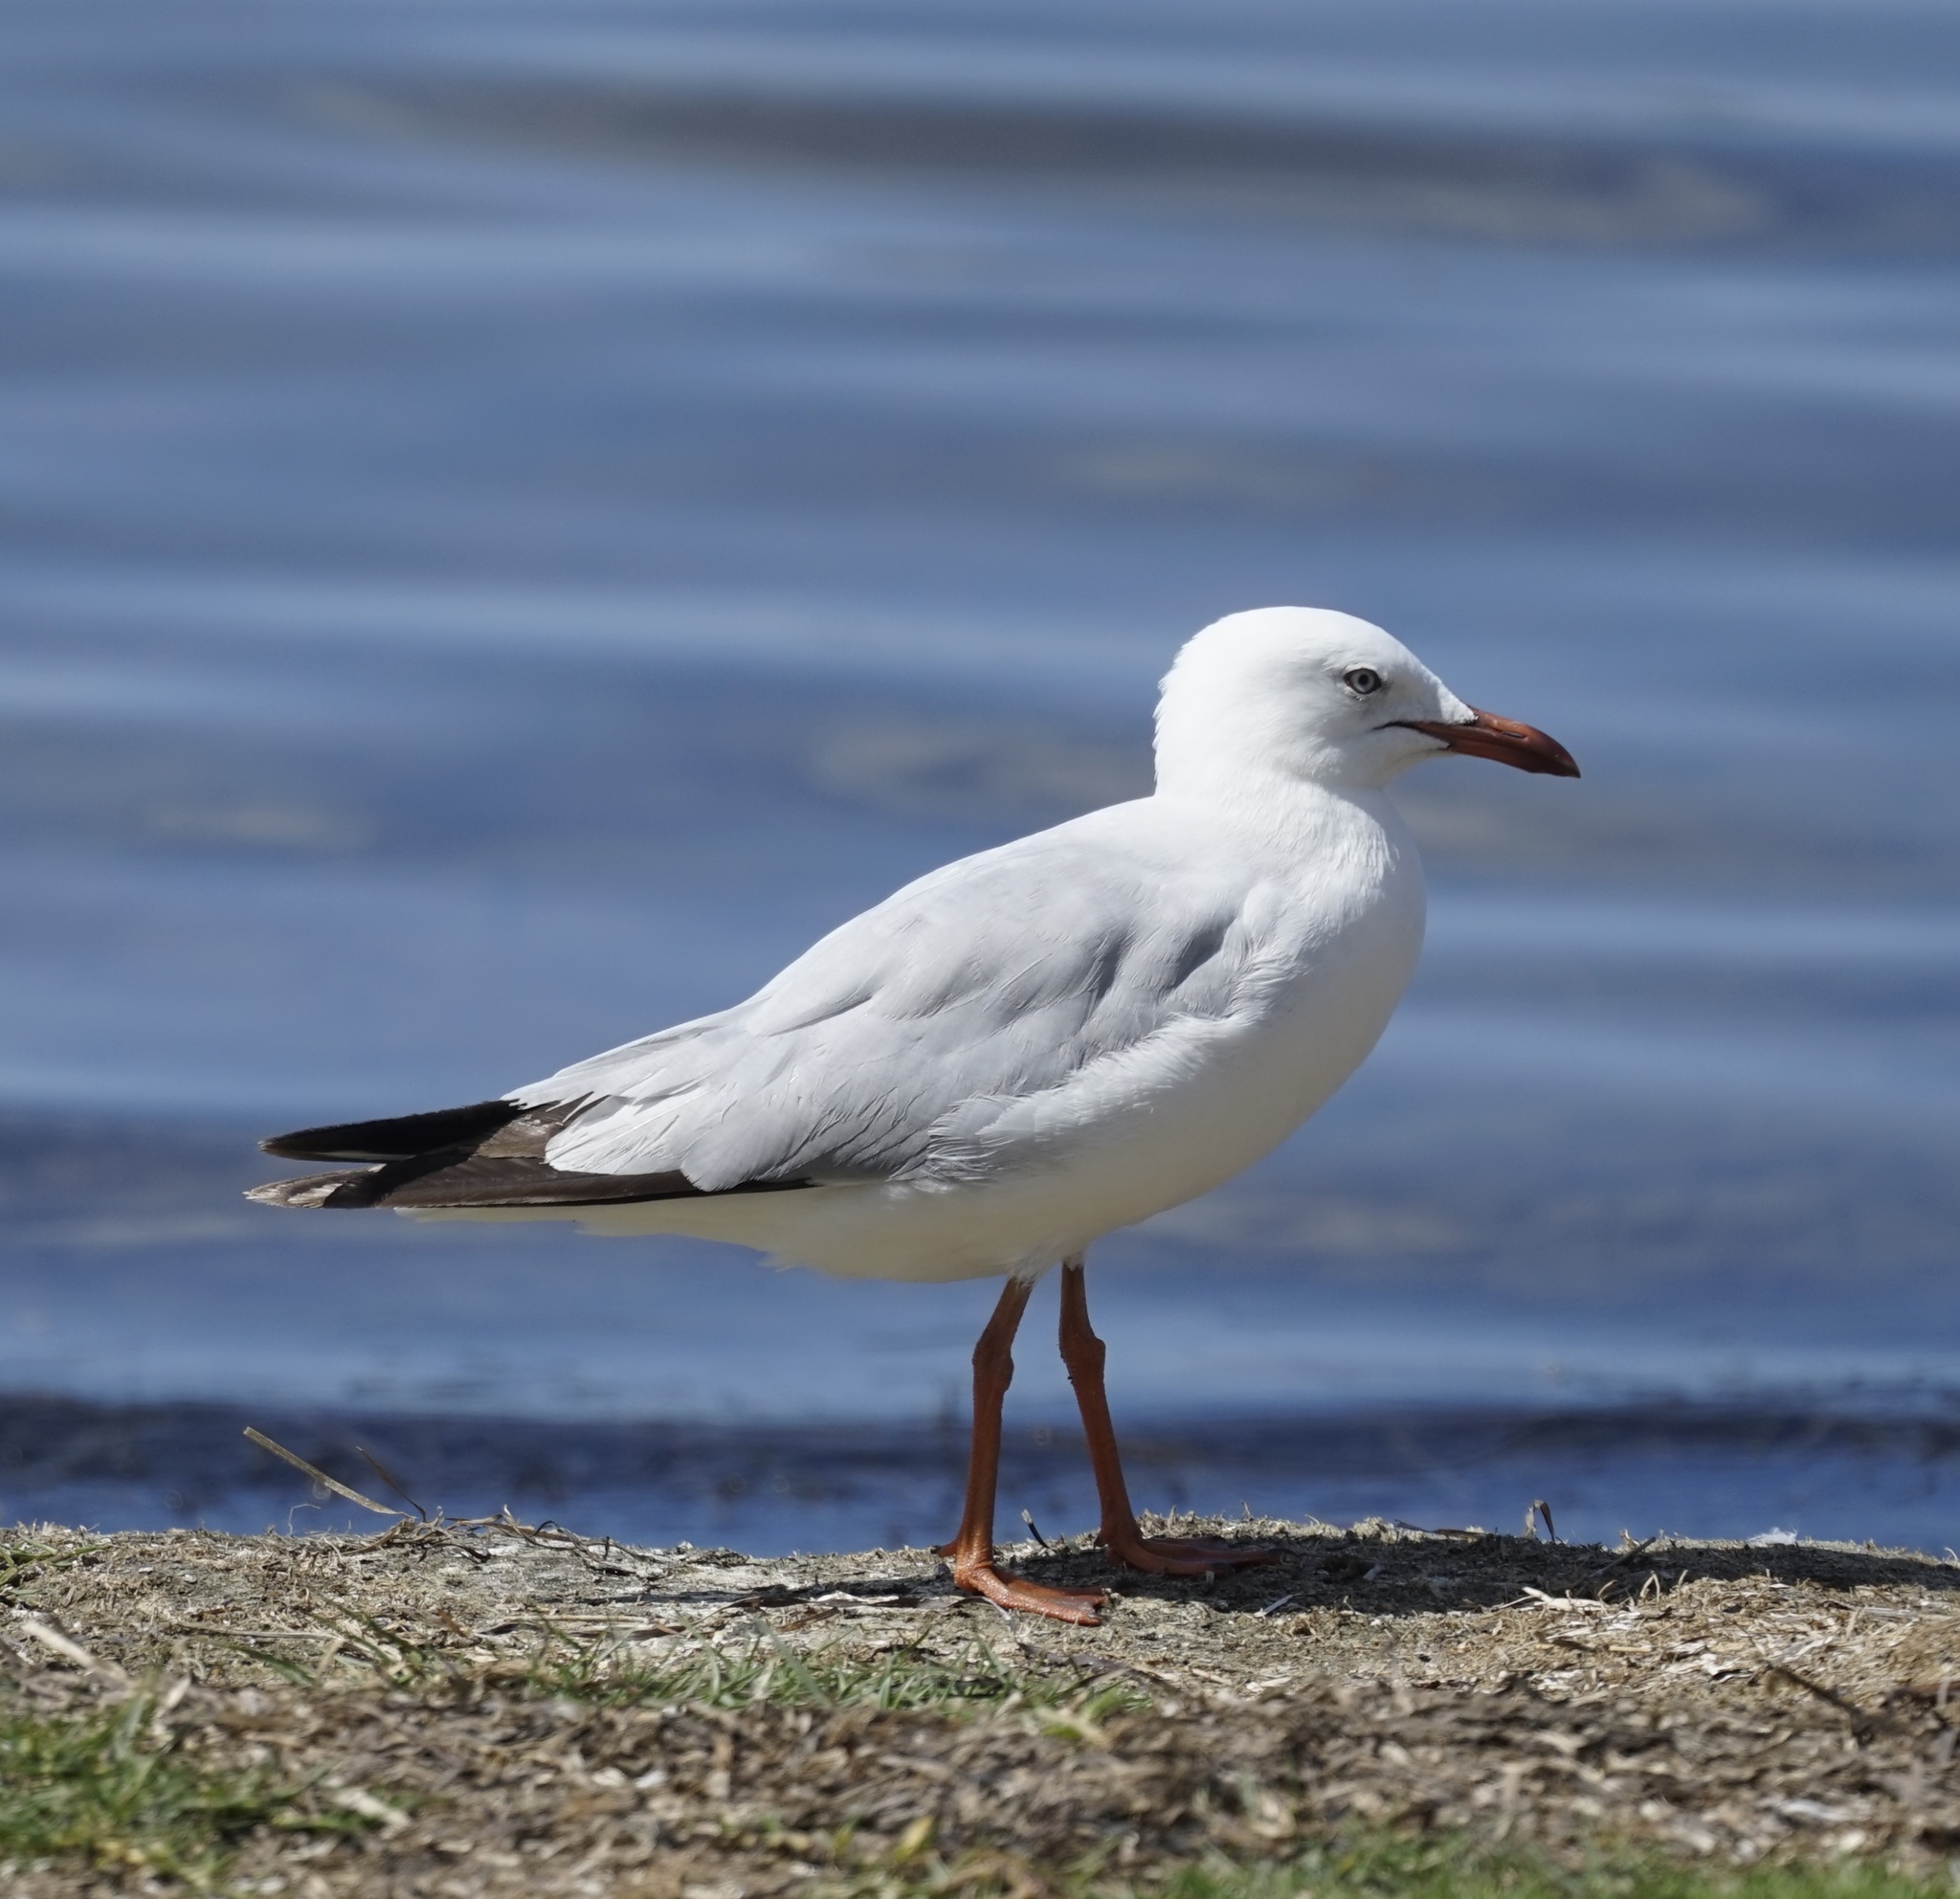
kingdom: Animalia
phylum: Chordata
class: Aves
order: Charadriiformes
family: Laridae
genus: Chroicocephalus
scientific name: Chroicocephalus novaehollandiae
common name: Silver gull
